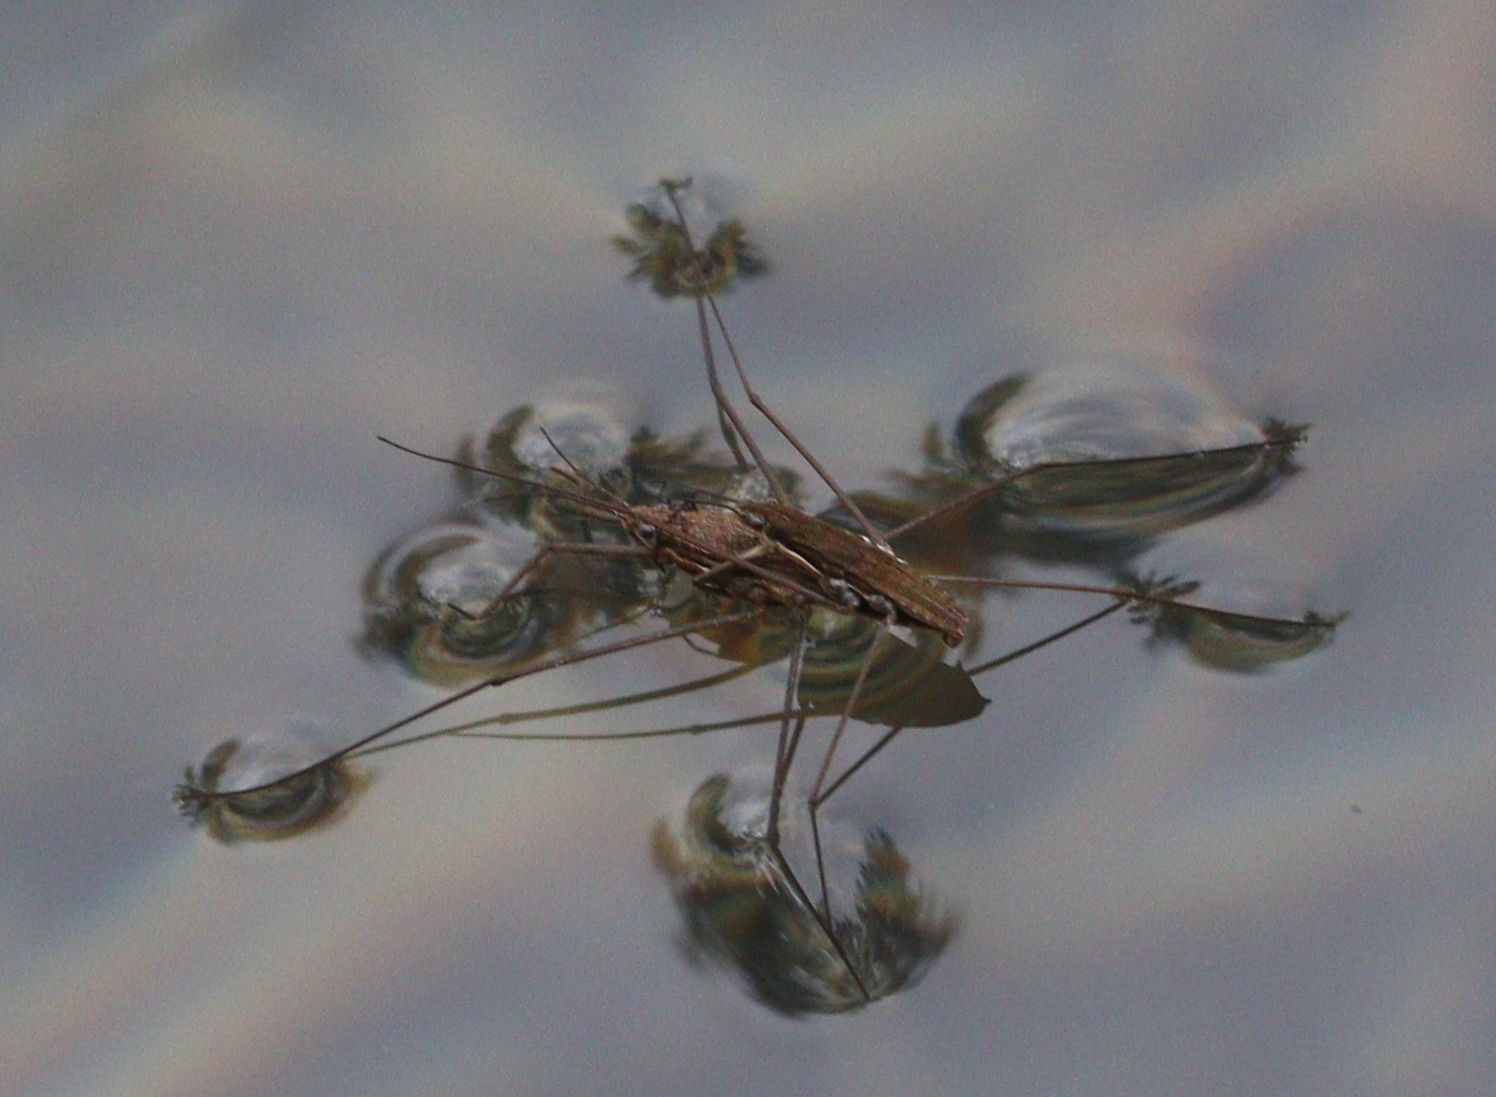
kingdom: Animalia
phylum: Arthropoda
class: Insecta
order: Hemiptera
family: Gerridae
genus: Aquarius
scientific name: Aquarius ventralis
